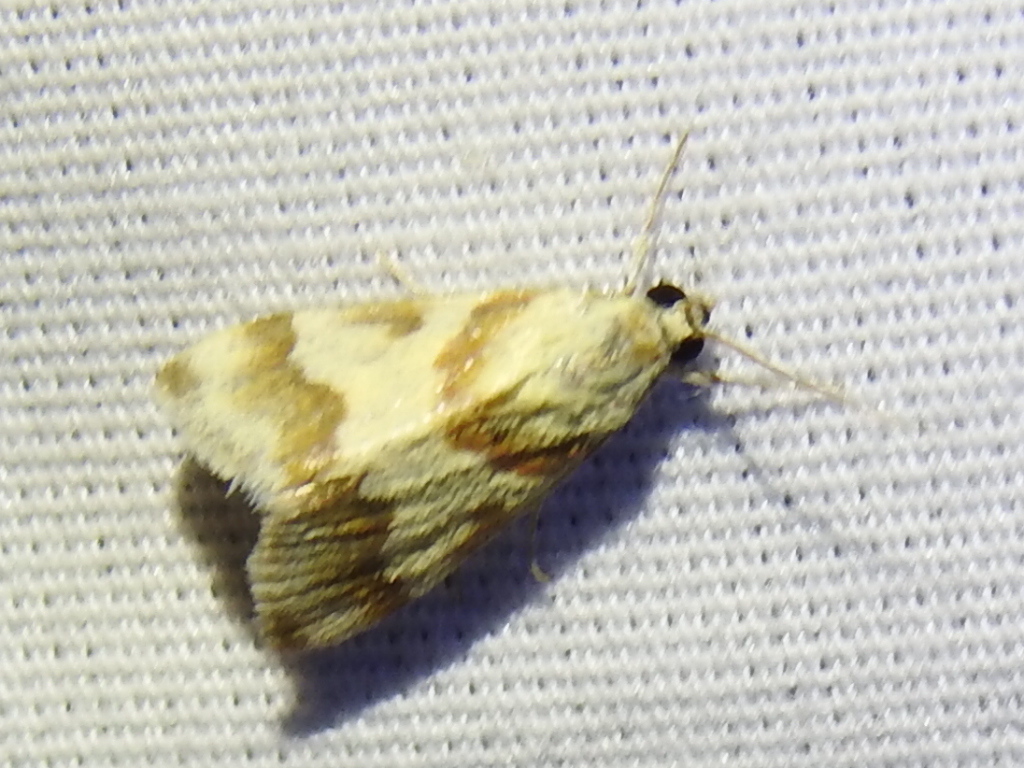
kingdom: Animalia
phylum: Arthropoda
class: Insecta
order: Lepidoptera
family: Crambidae
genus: Noctuelia
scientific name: Noctuelia Mimoschinia rufofascialis
